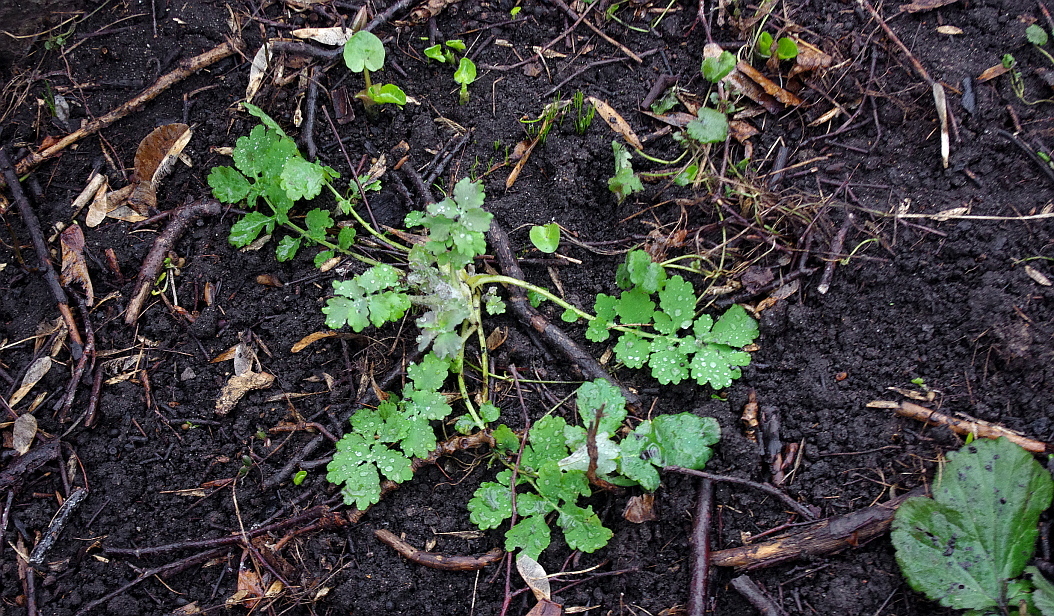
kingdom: Plantae
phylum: Tracheophyta
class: Magnoliopsida
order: Ranunculales
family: Papaveraceae
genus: Chelidonium
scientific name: Chelidonium majus
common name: Greater celandine
